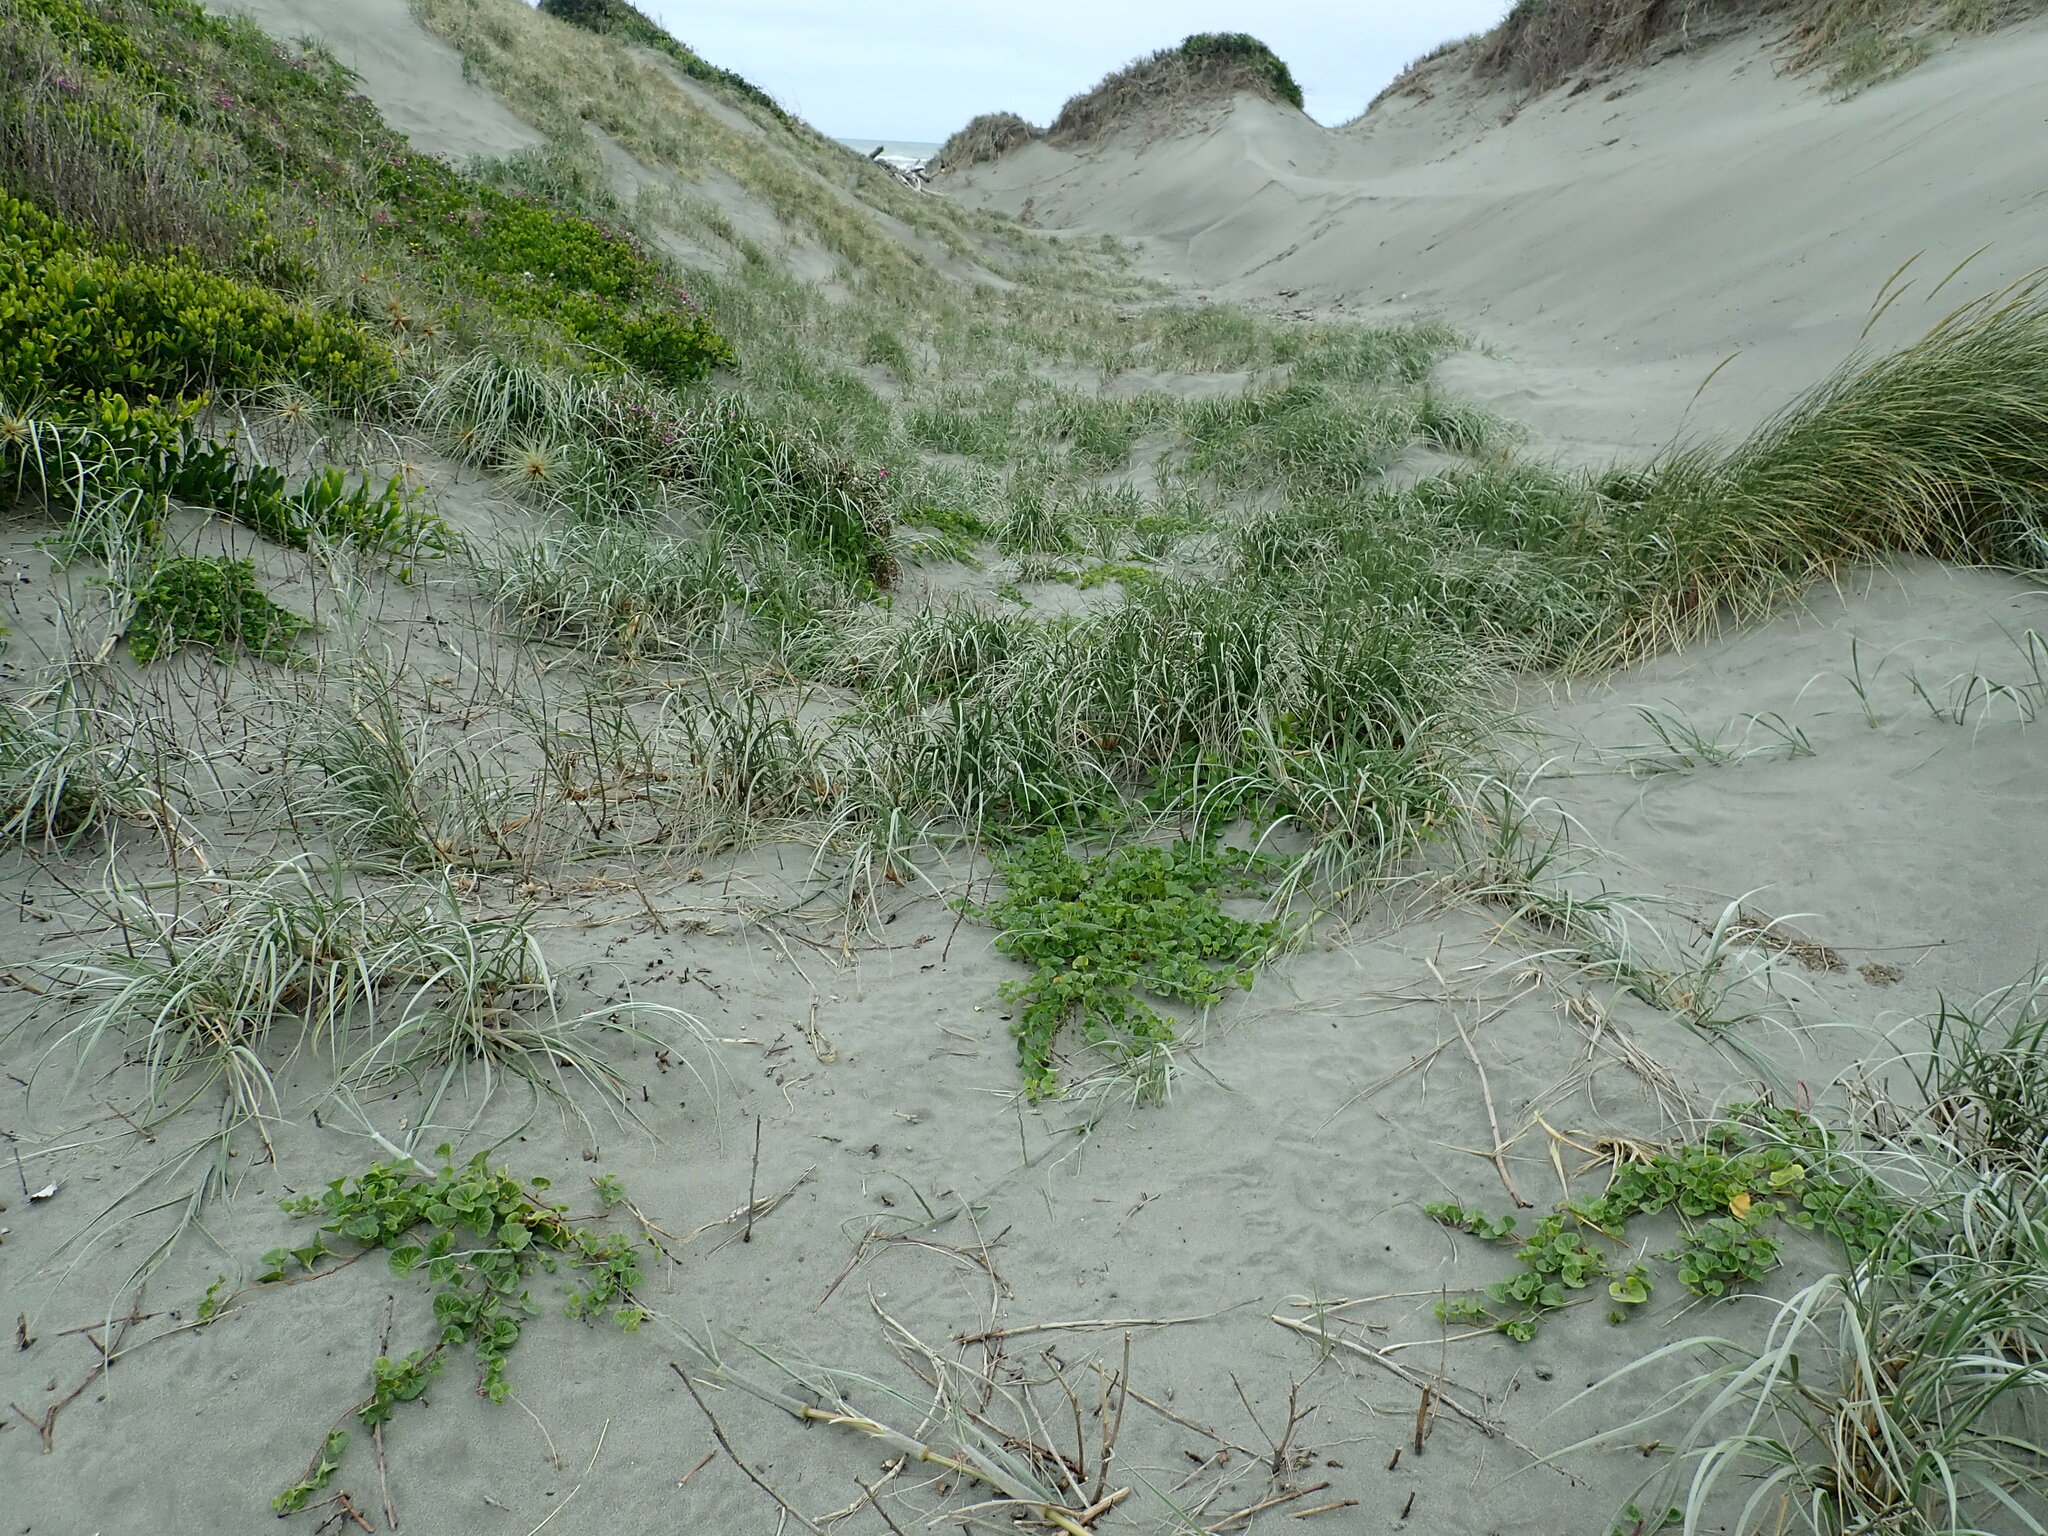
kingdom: Plantae
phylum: Tracheophyta
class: Magnoliopsida
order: Solanales
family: Convolvulaceae
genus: Calystegia
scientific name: Calystegia soldanella
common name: Sea bindweed
